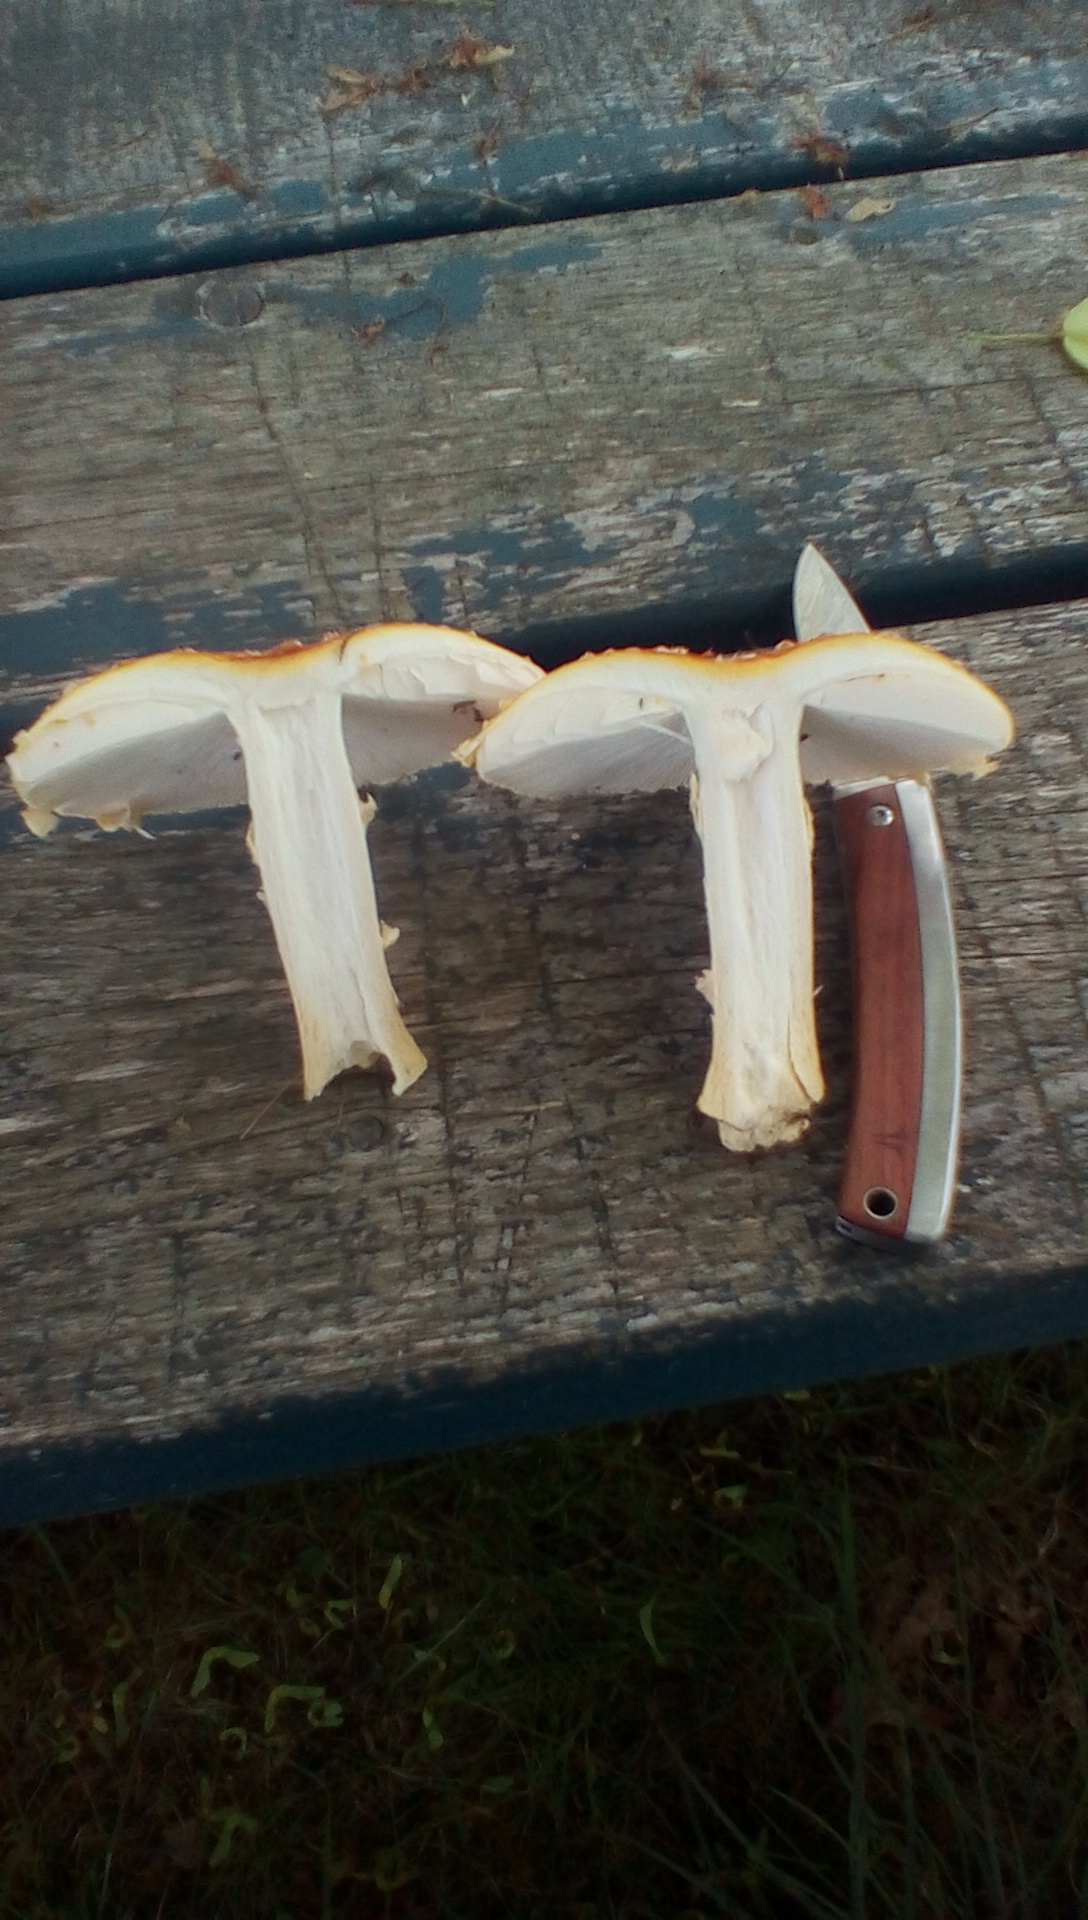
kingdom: Fungi
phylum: Basidiomycota
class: Agaricomycetes
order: Agaricales
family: Amanitaceae
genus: Amanita
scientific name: Amanita wellsii
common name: Salmon amanita
